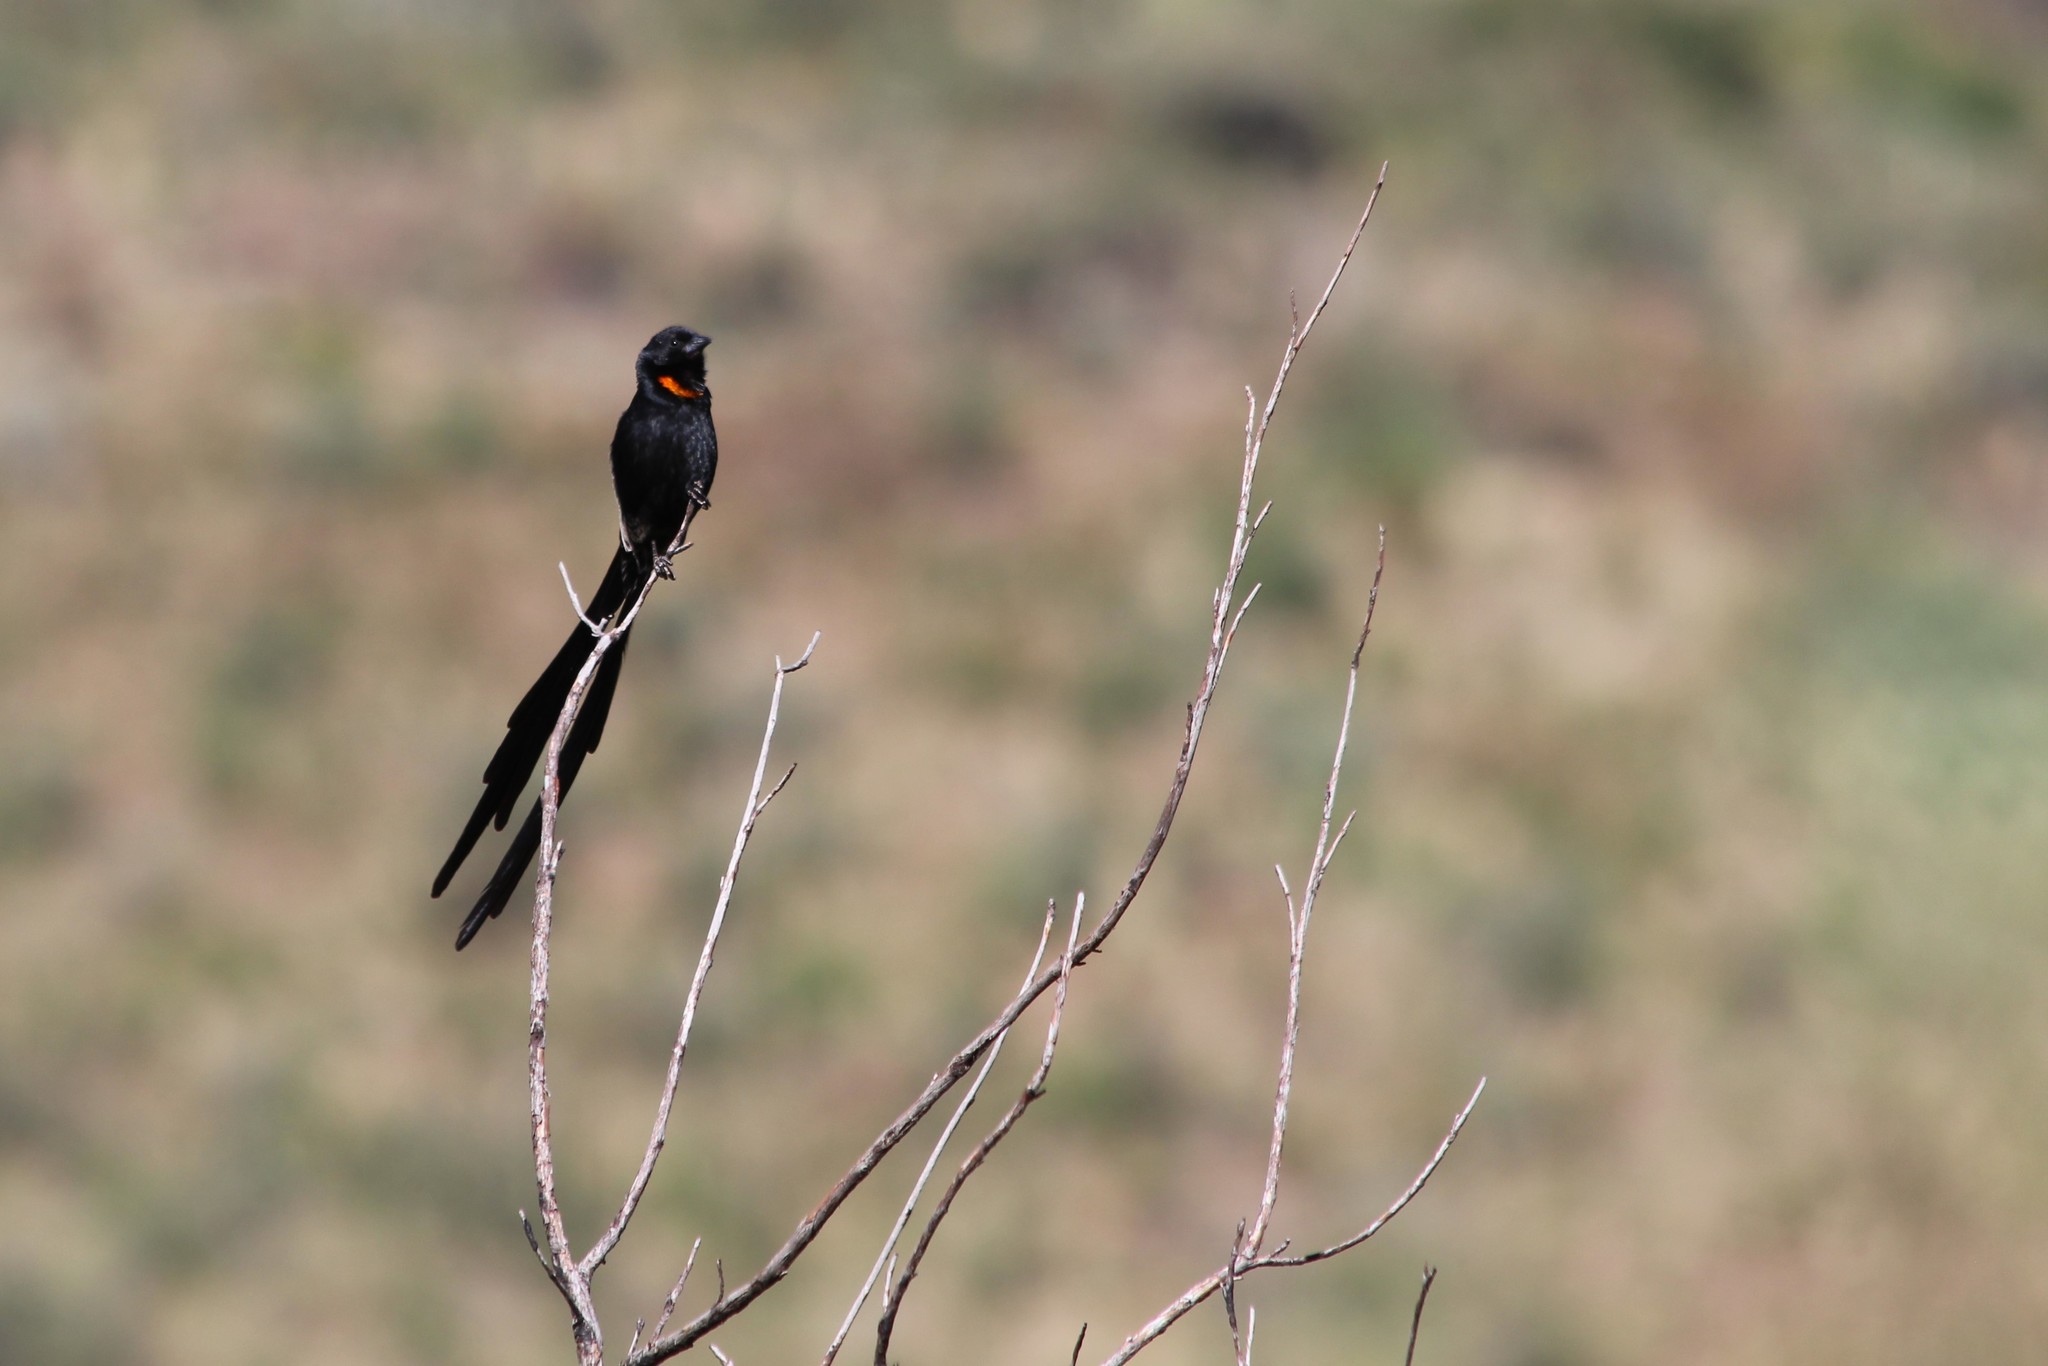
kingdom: Animalia
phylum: Chordata
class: Aves
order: Passeriformes
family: Ploceidae
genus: Euplectes
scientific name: Euplectes ardens
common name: Red-collared widowbird
